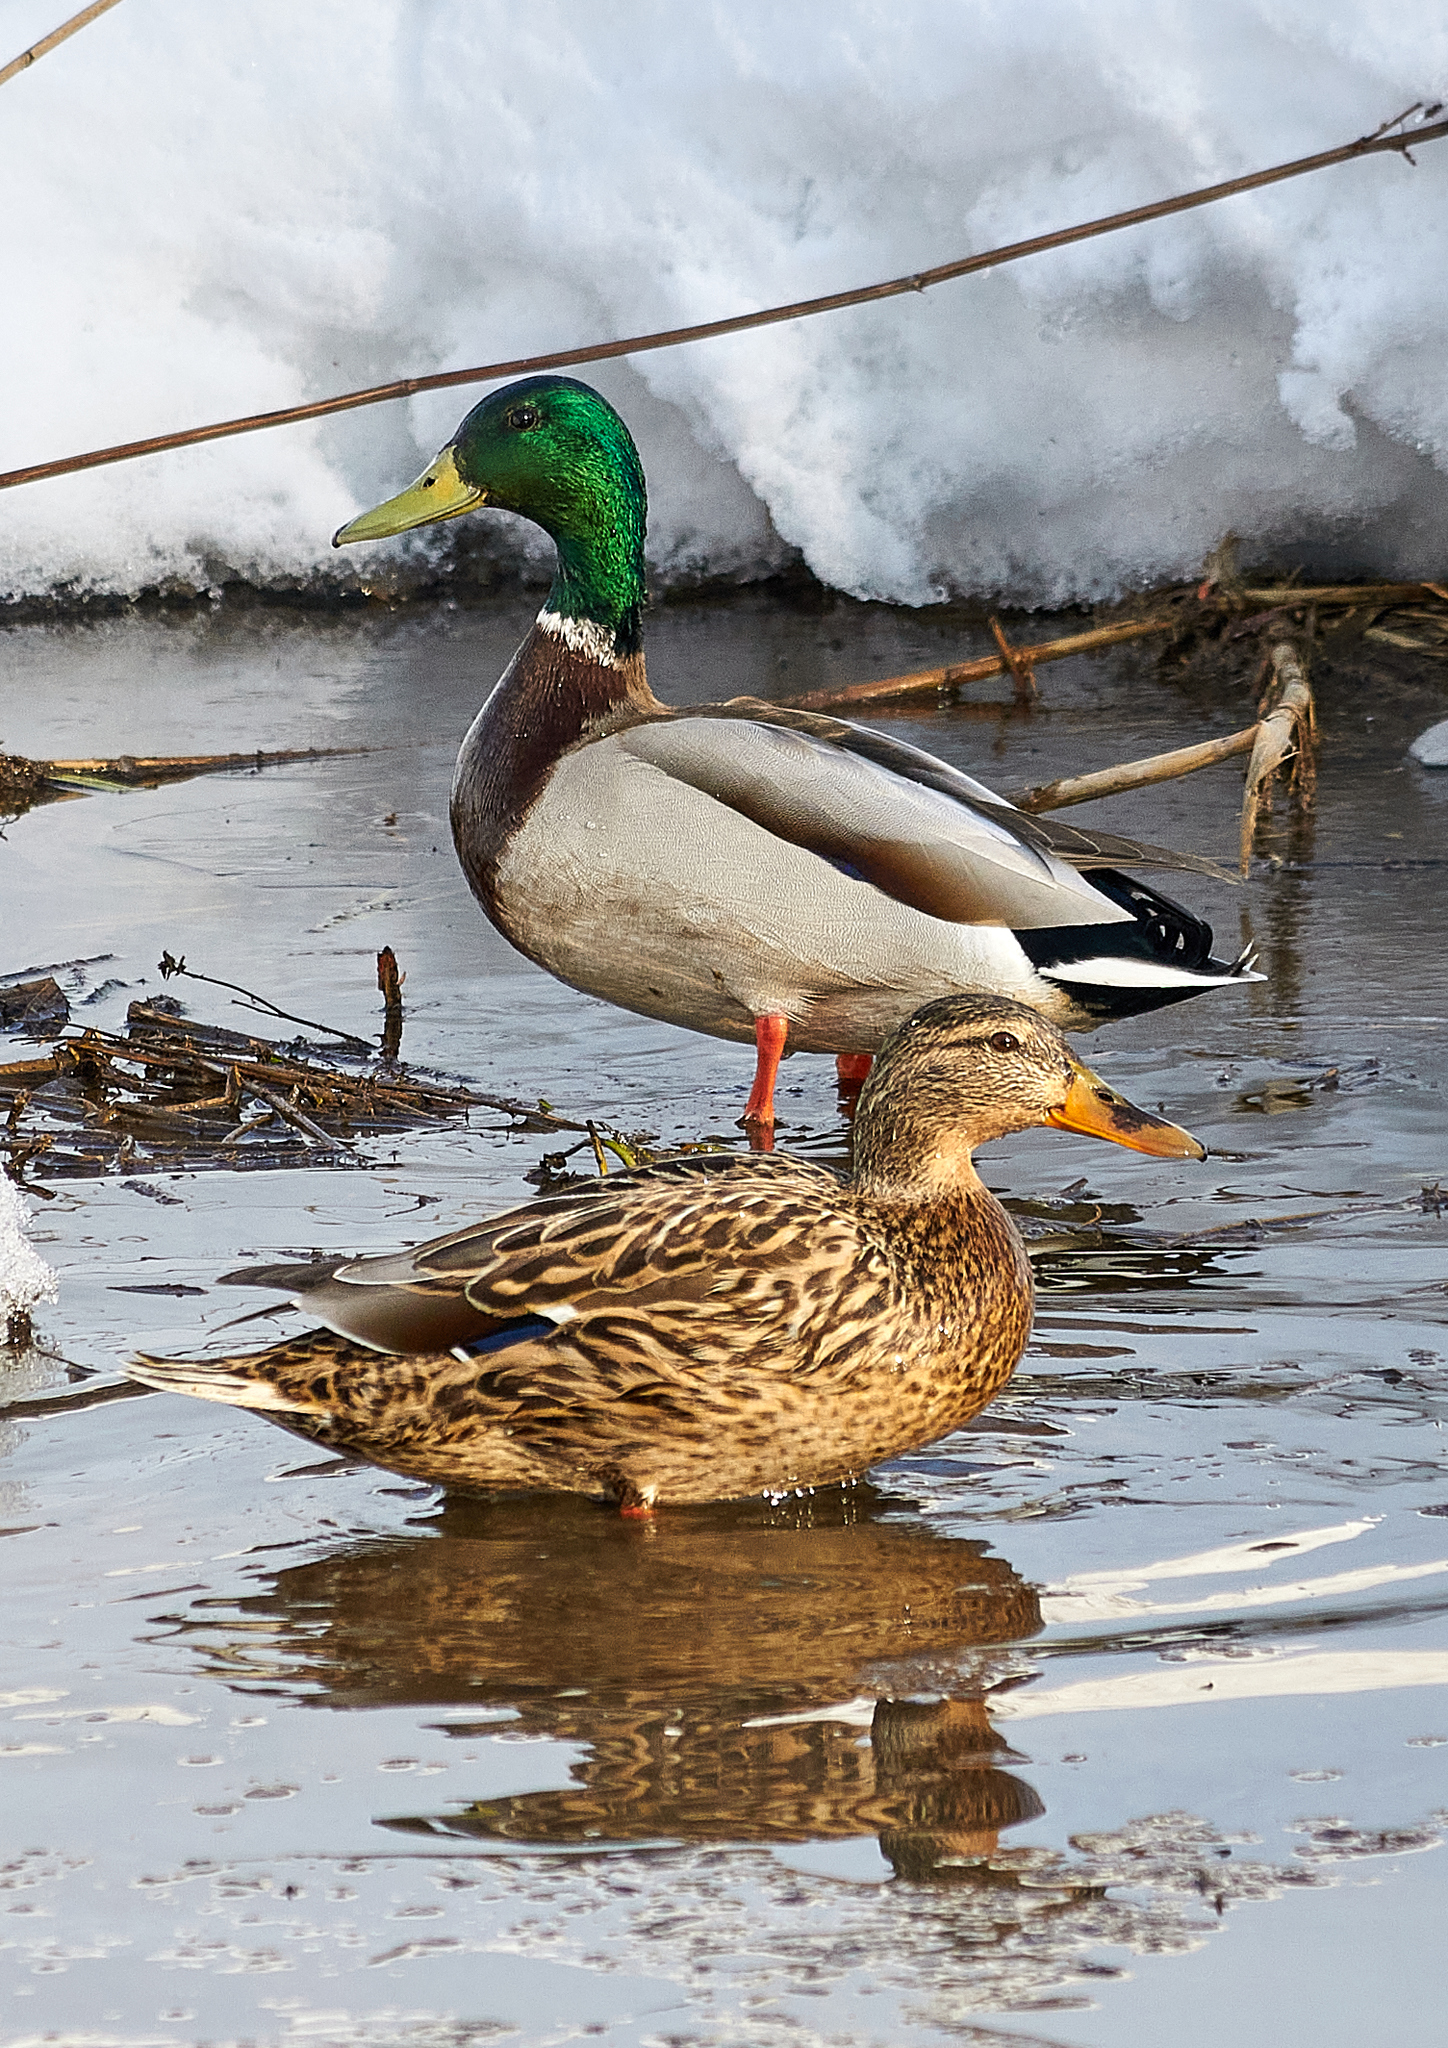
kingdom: Animalia
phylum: Chordata
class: Aves
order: Anseriformes
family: Anatidae
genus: Anas
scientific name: Anas platyrhynchos
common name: Mallard
